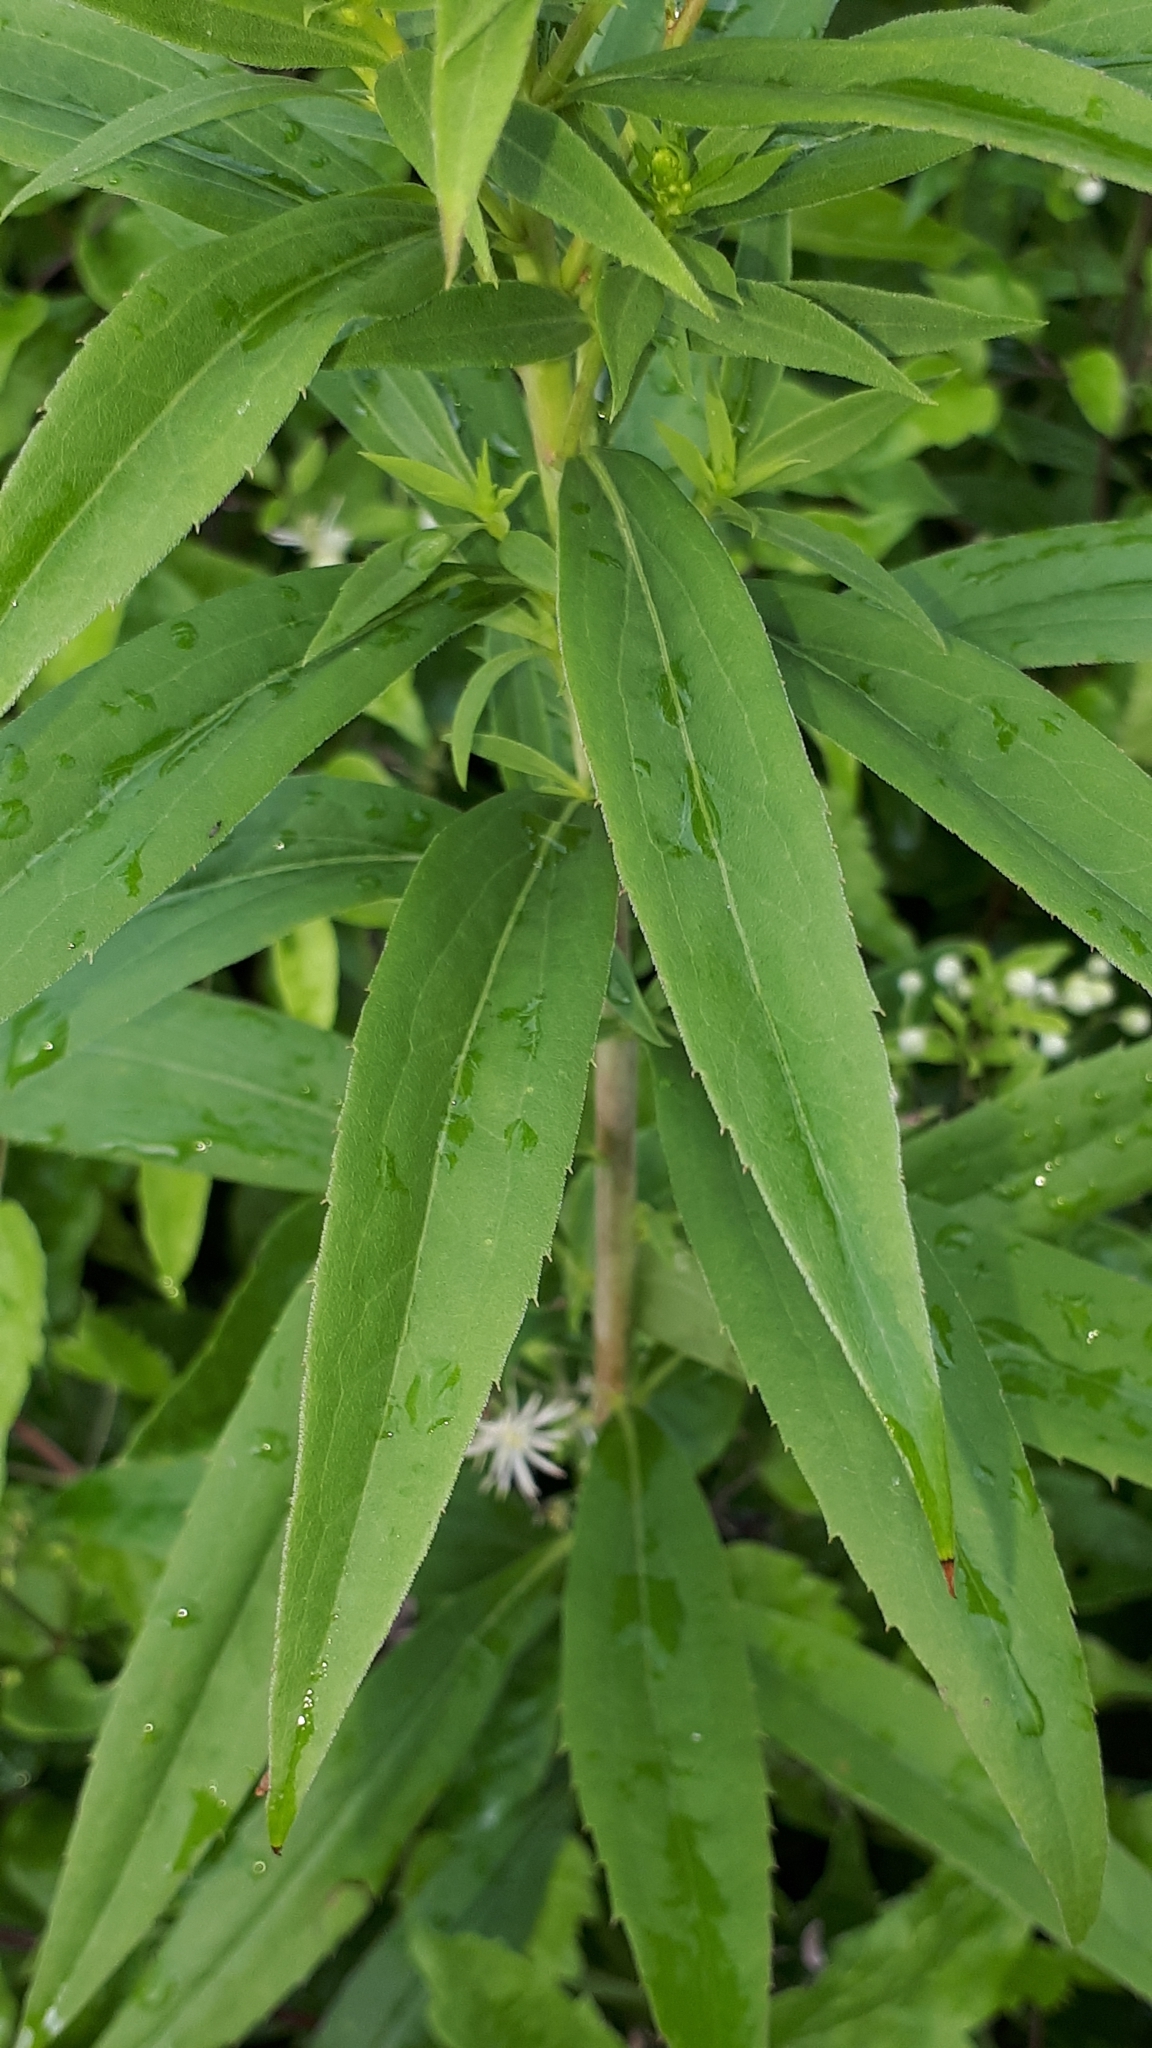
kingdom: Plantae
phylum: Tracheophyta
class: Magnoliopsida
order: Asterales
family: Asteraceae
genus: Solidago
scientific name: Solidago gigantea
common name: Giant goldenrod
